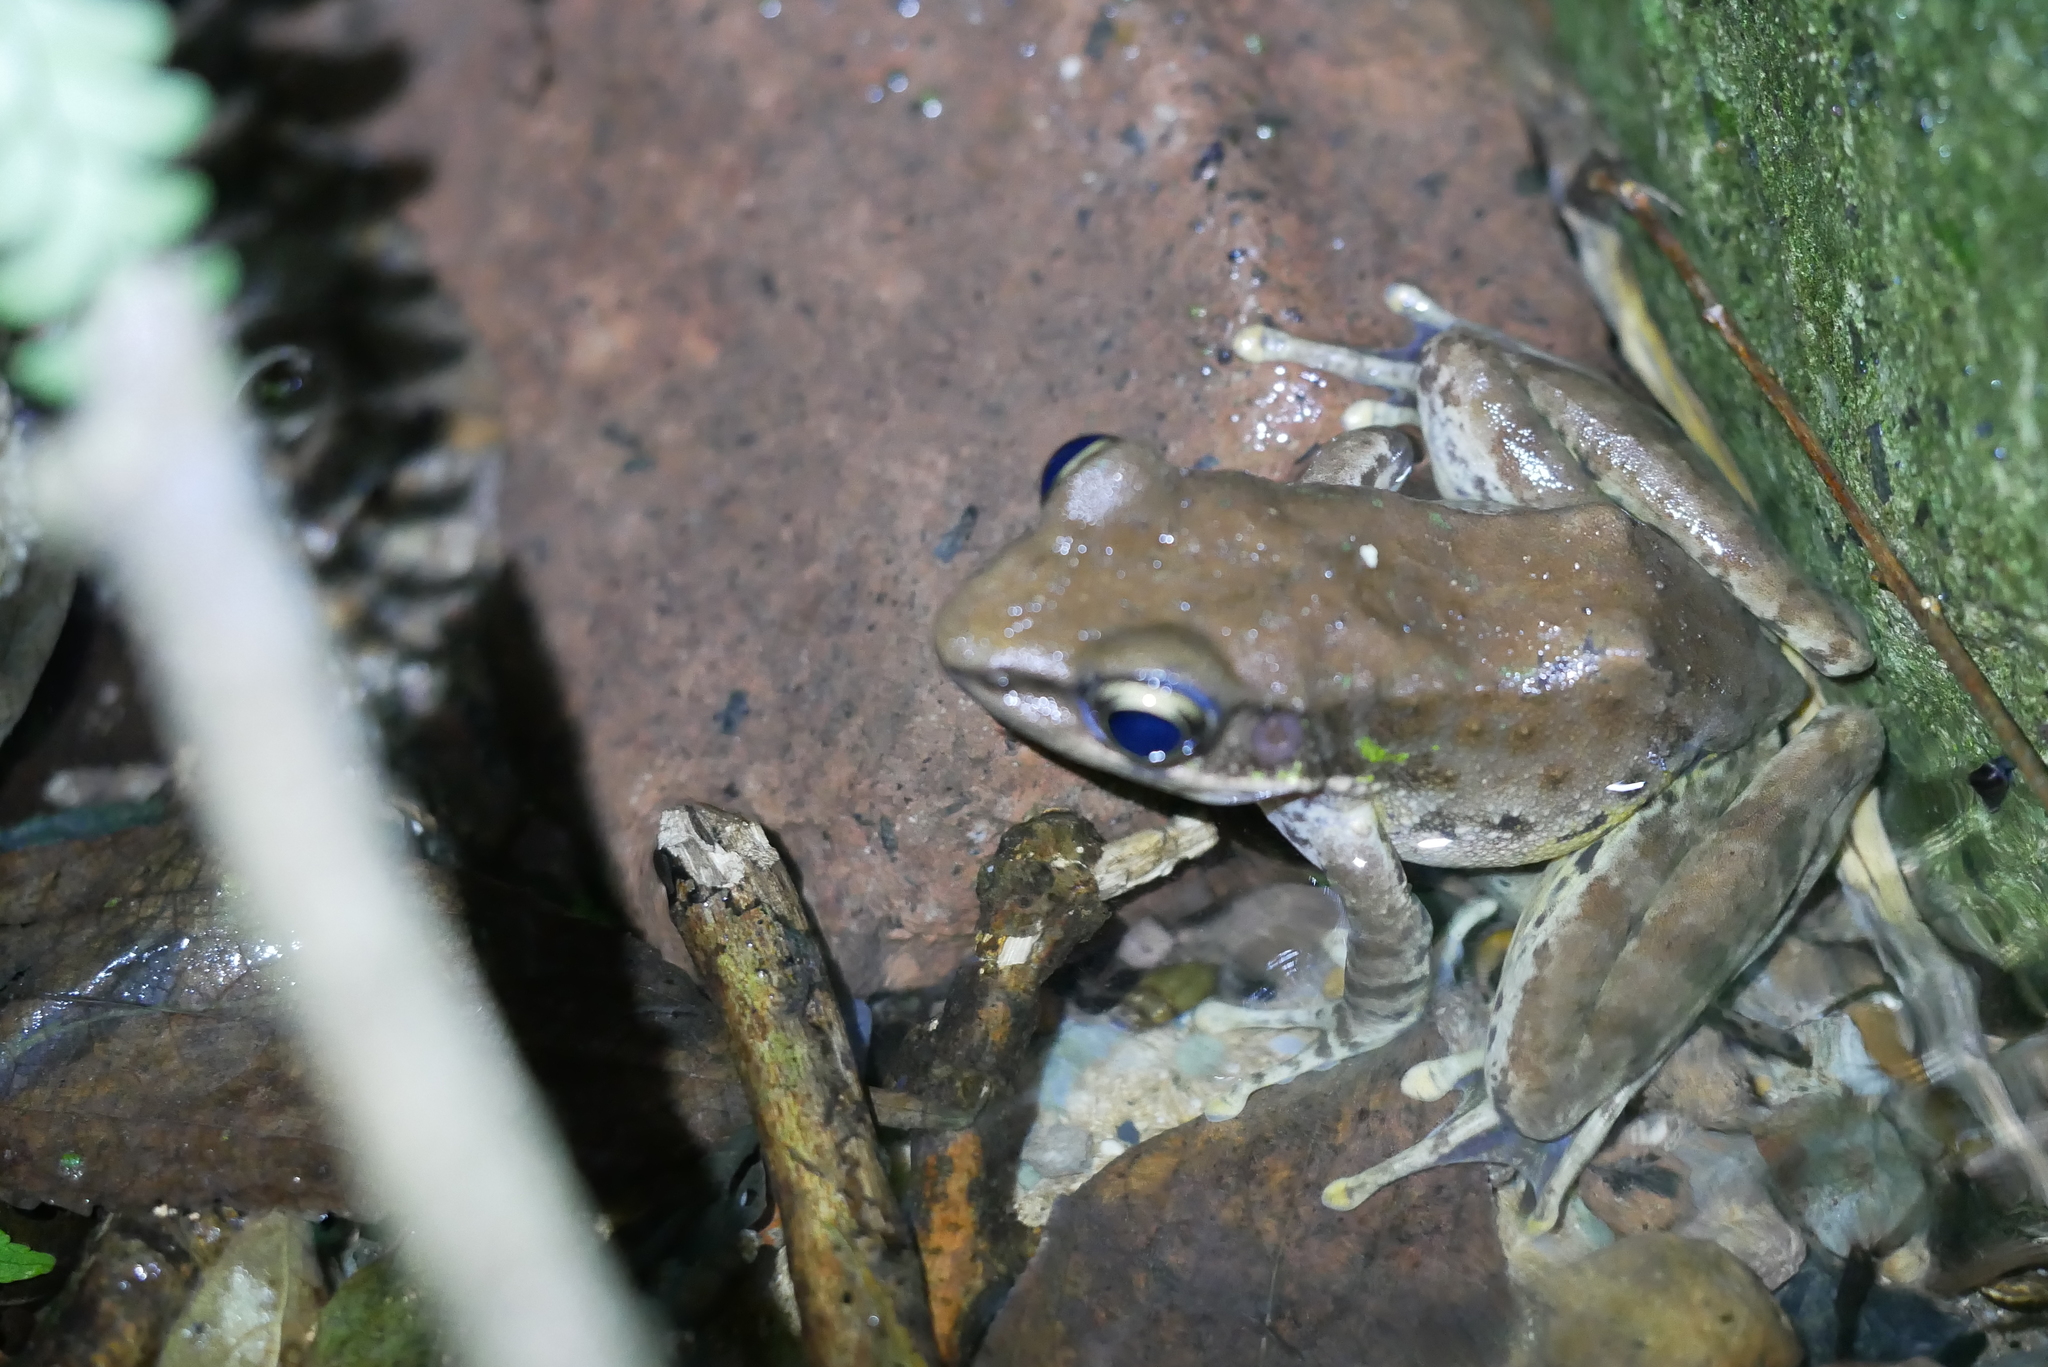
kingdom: Animalia
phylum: Chordata
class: Amphibia
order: Anura
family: Ranidae
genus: Odorrana
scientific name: Odorrana swinhoana
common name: Bangkimtsing frog
